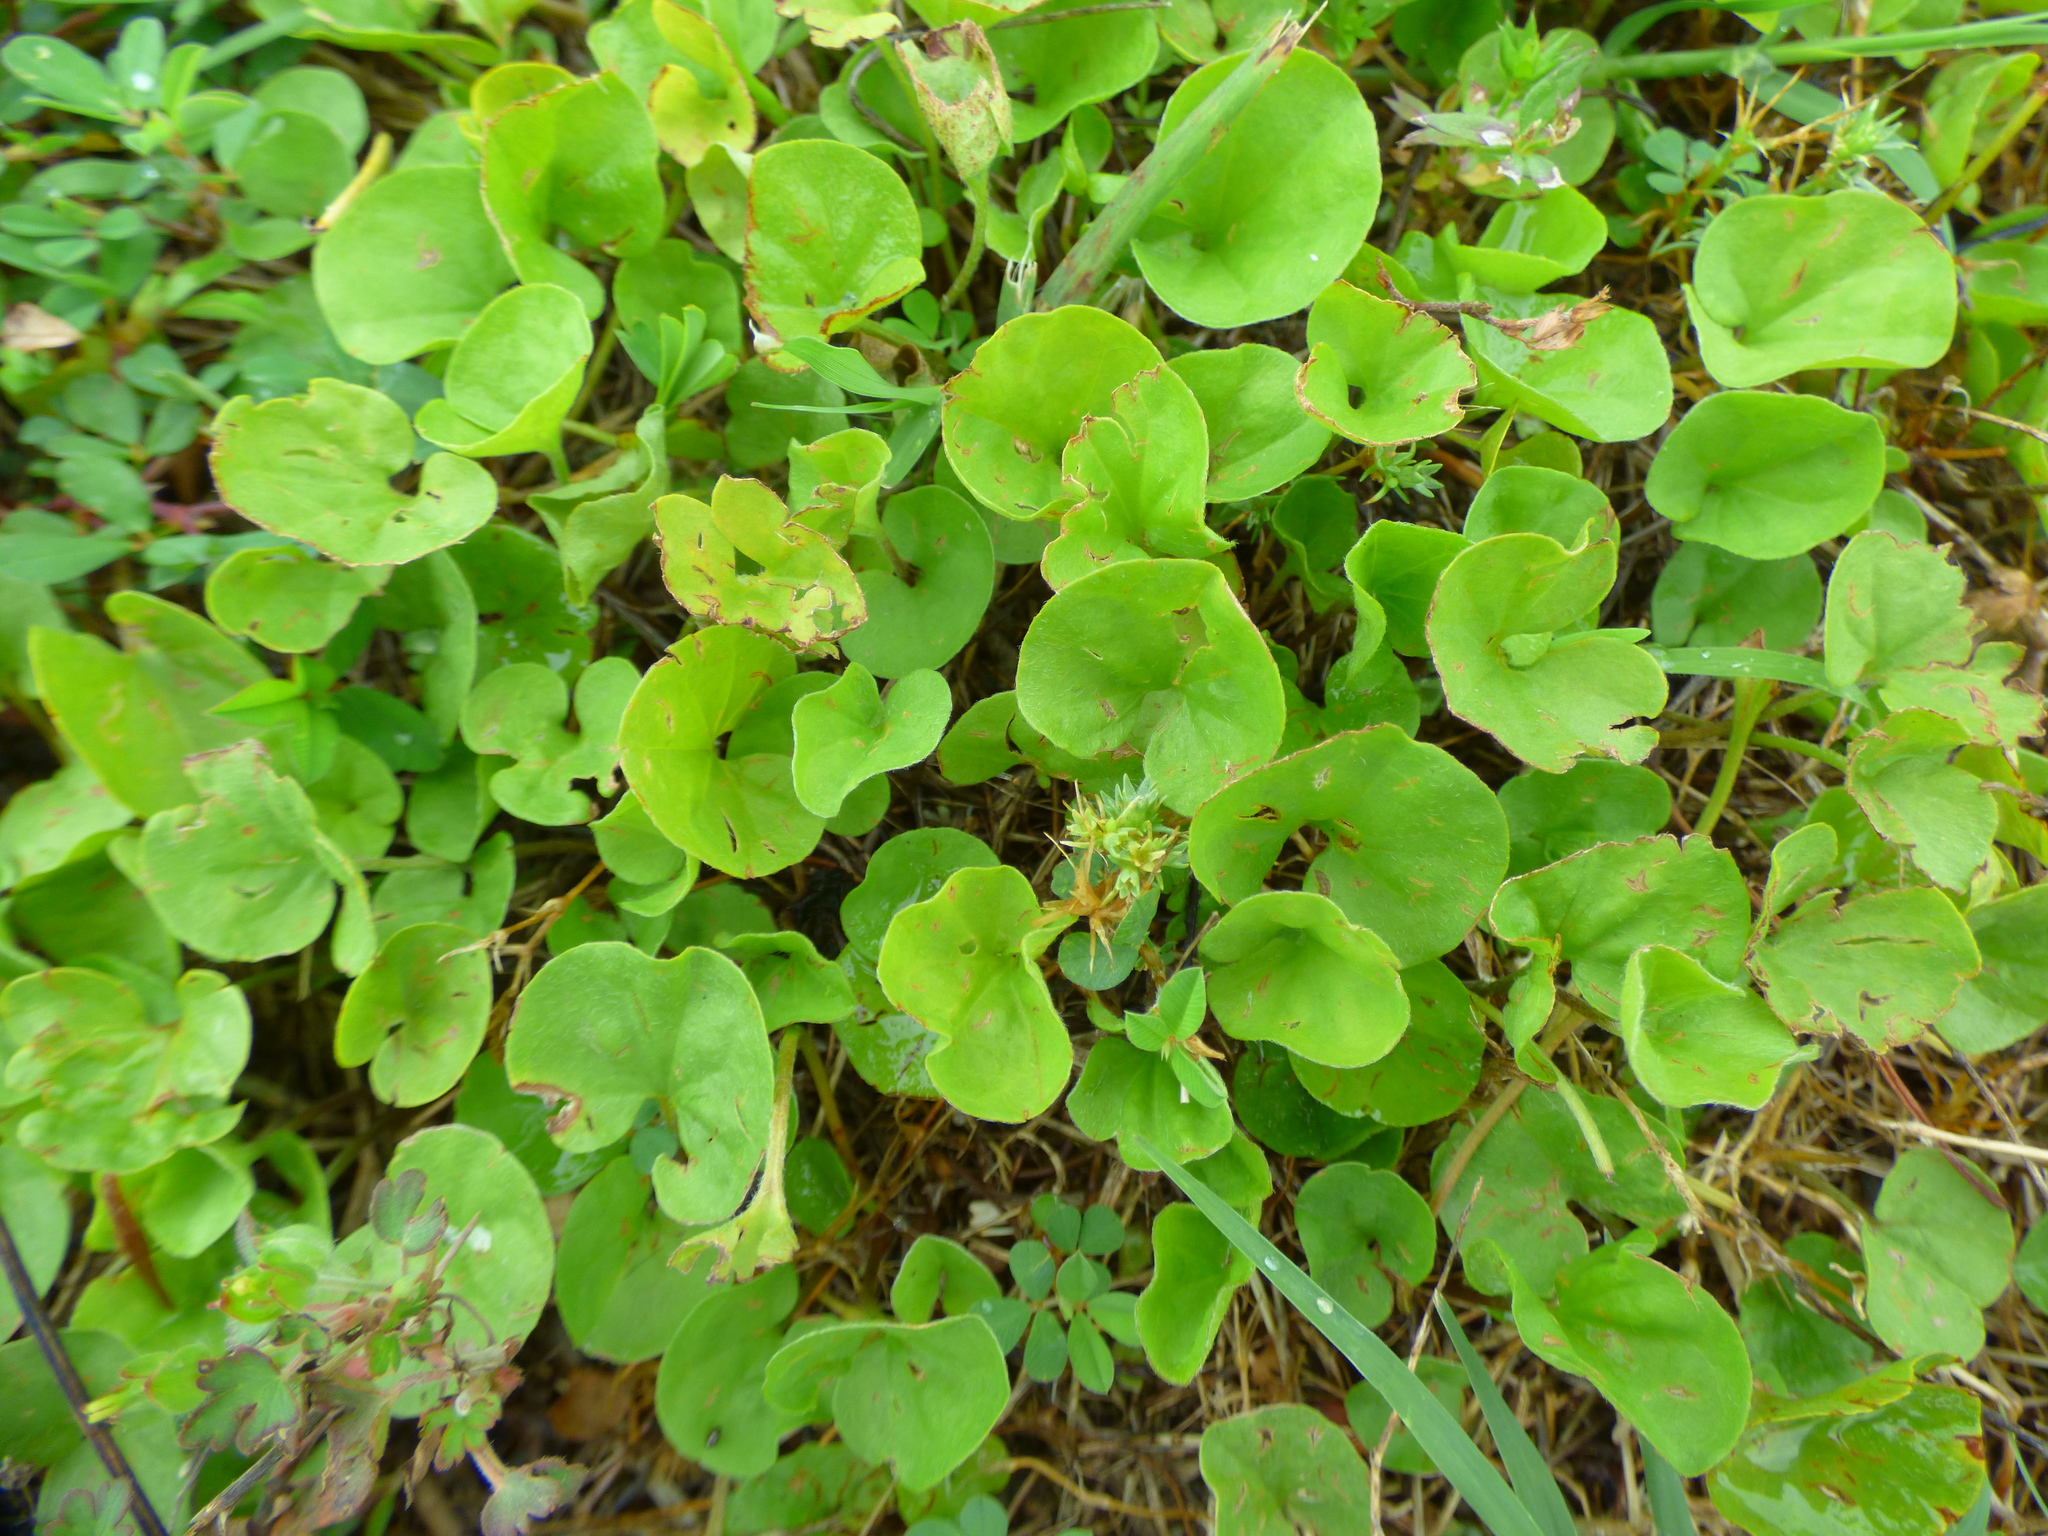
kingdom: Plantae
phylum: Tracheophyta
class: Magnoliopsida
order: Solanales
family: Convolvulaceae
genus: Dichondra
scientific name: Dichondra carolinensis
